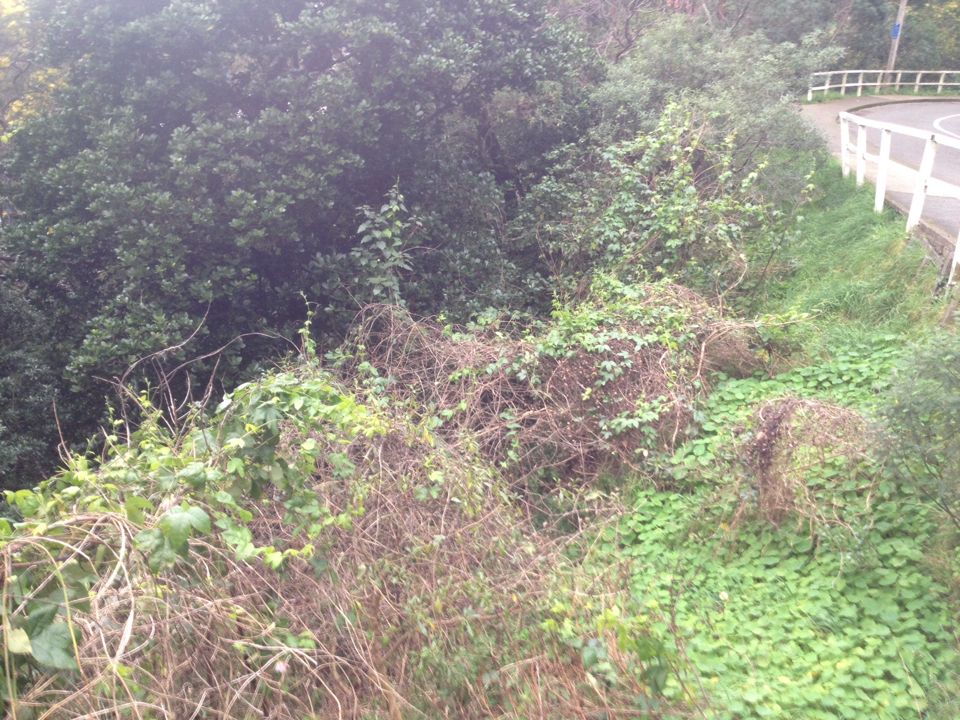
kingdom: Plantae
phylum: Tracheophyta
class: Magnoliopsida
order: Malpighiales
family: Passifloraceae
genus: Passiflora
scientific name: Passiflora tripartita
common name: Banana poka
